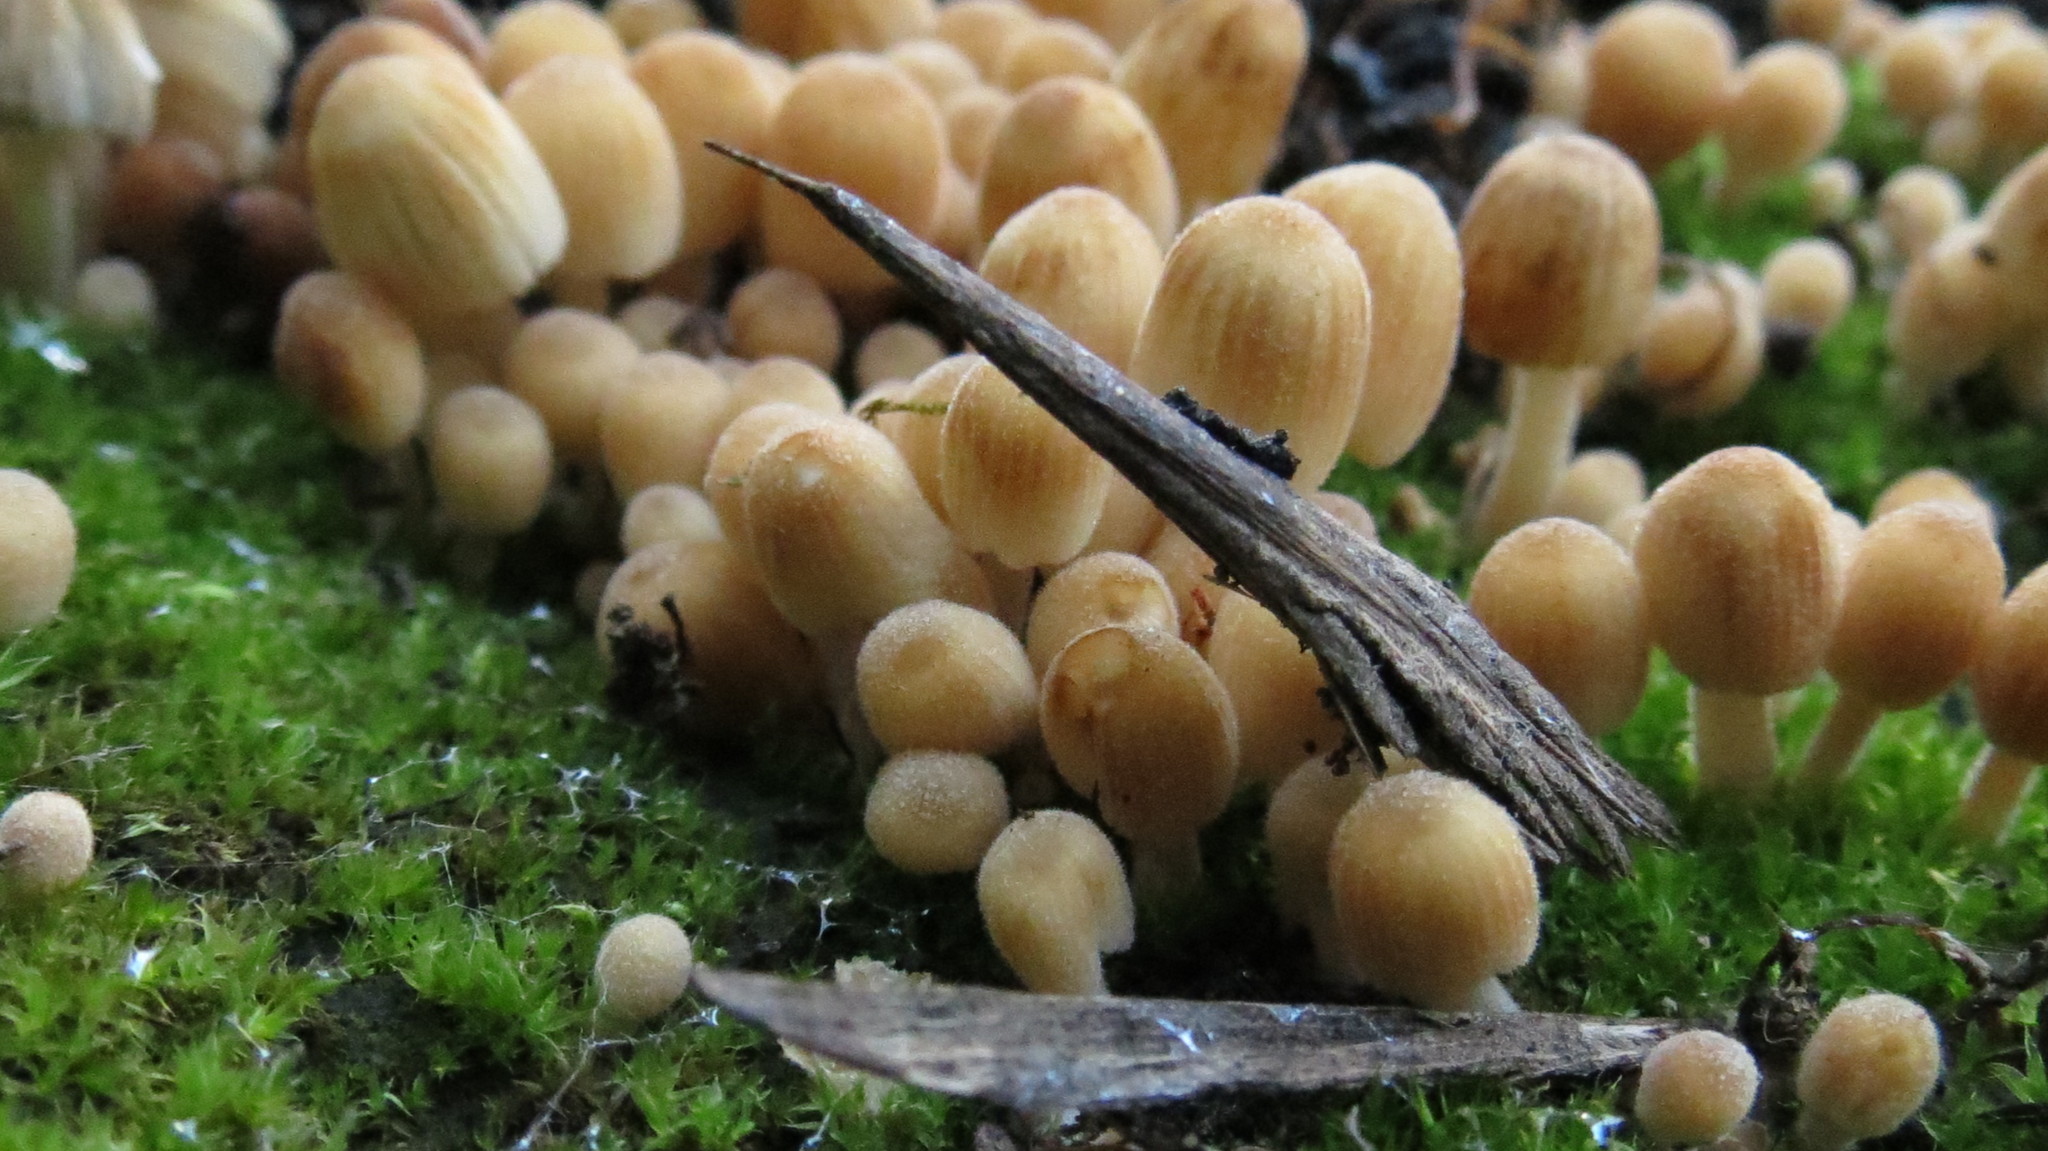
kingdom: Fungi
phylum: Basidiomycota
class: Agaricomycetes
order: Agaricales
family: Psathyrellaceae
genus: Coprinellus
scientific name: Coprinellus disseminatus
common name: Fairies' bonnets
